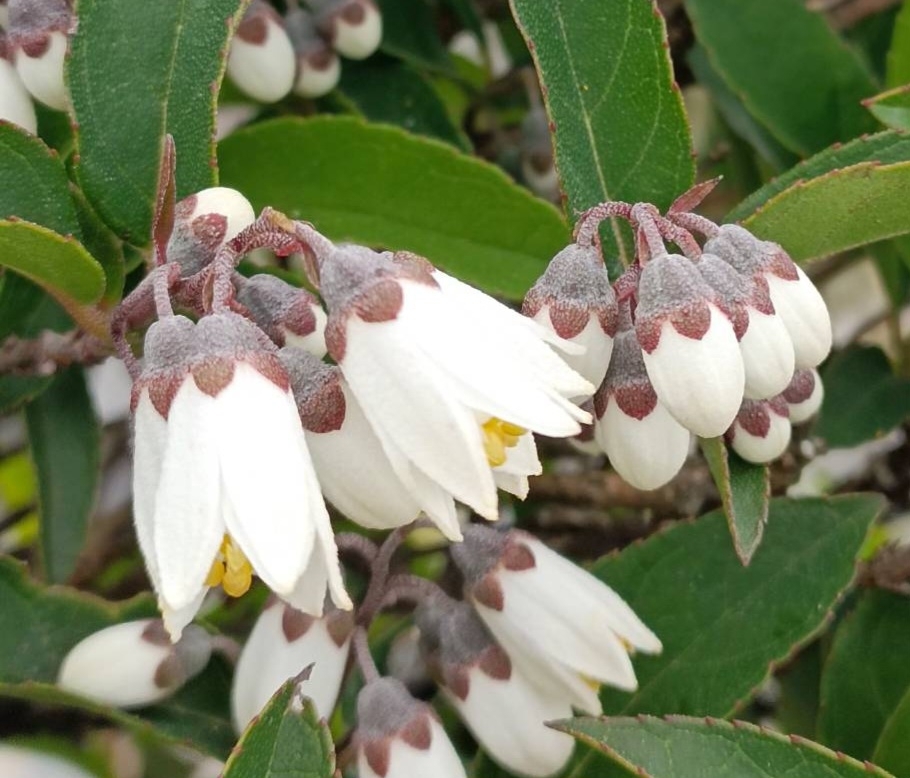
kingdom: Plantae
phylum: Tracheophyta
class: Magnoliopsida
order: Cornales
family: Hydrangeaceae
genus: Deutzia
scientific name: Deutzia pulchra
